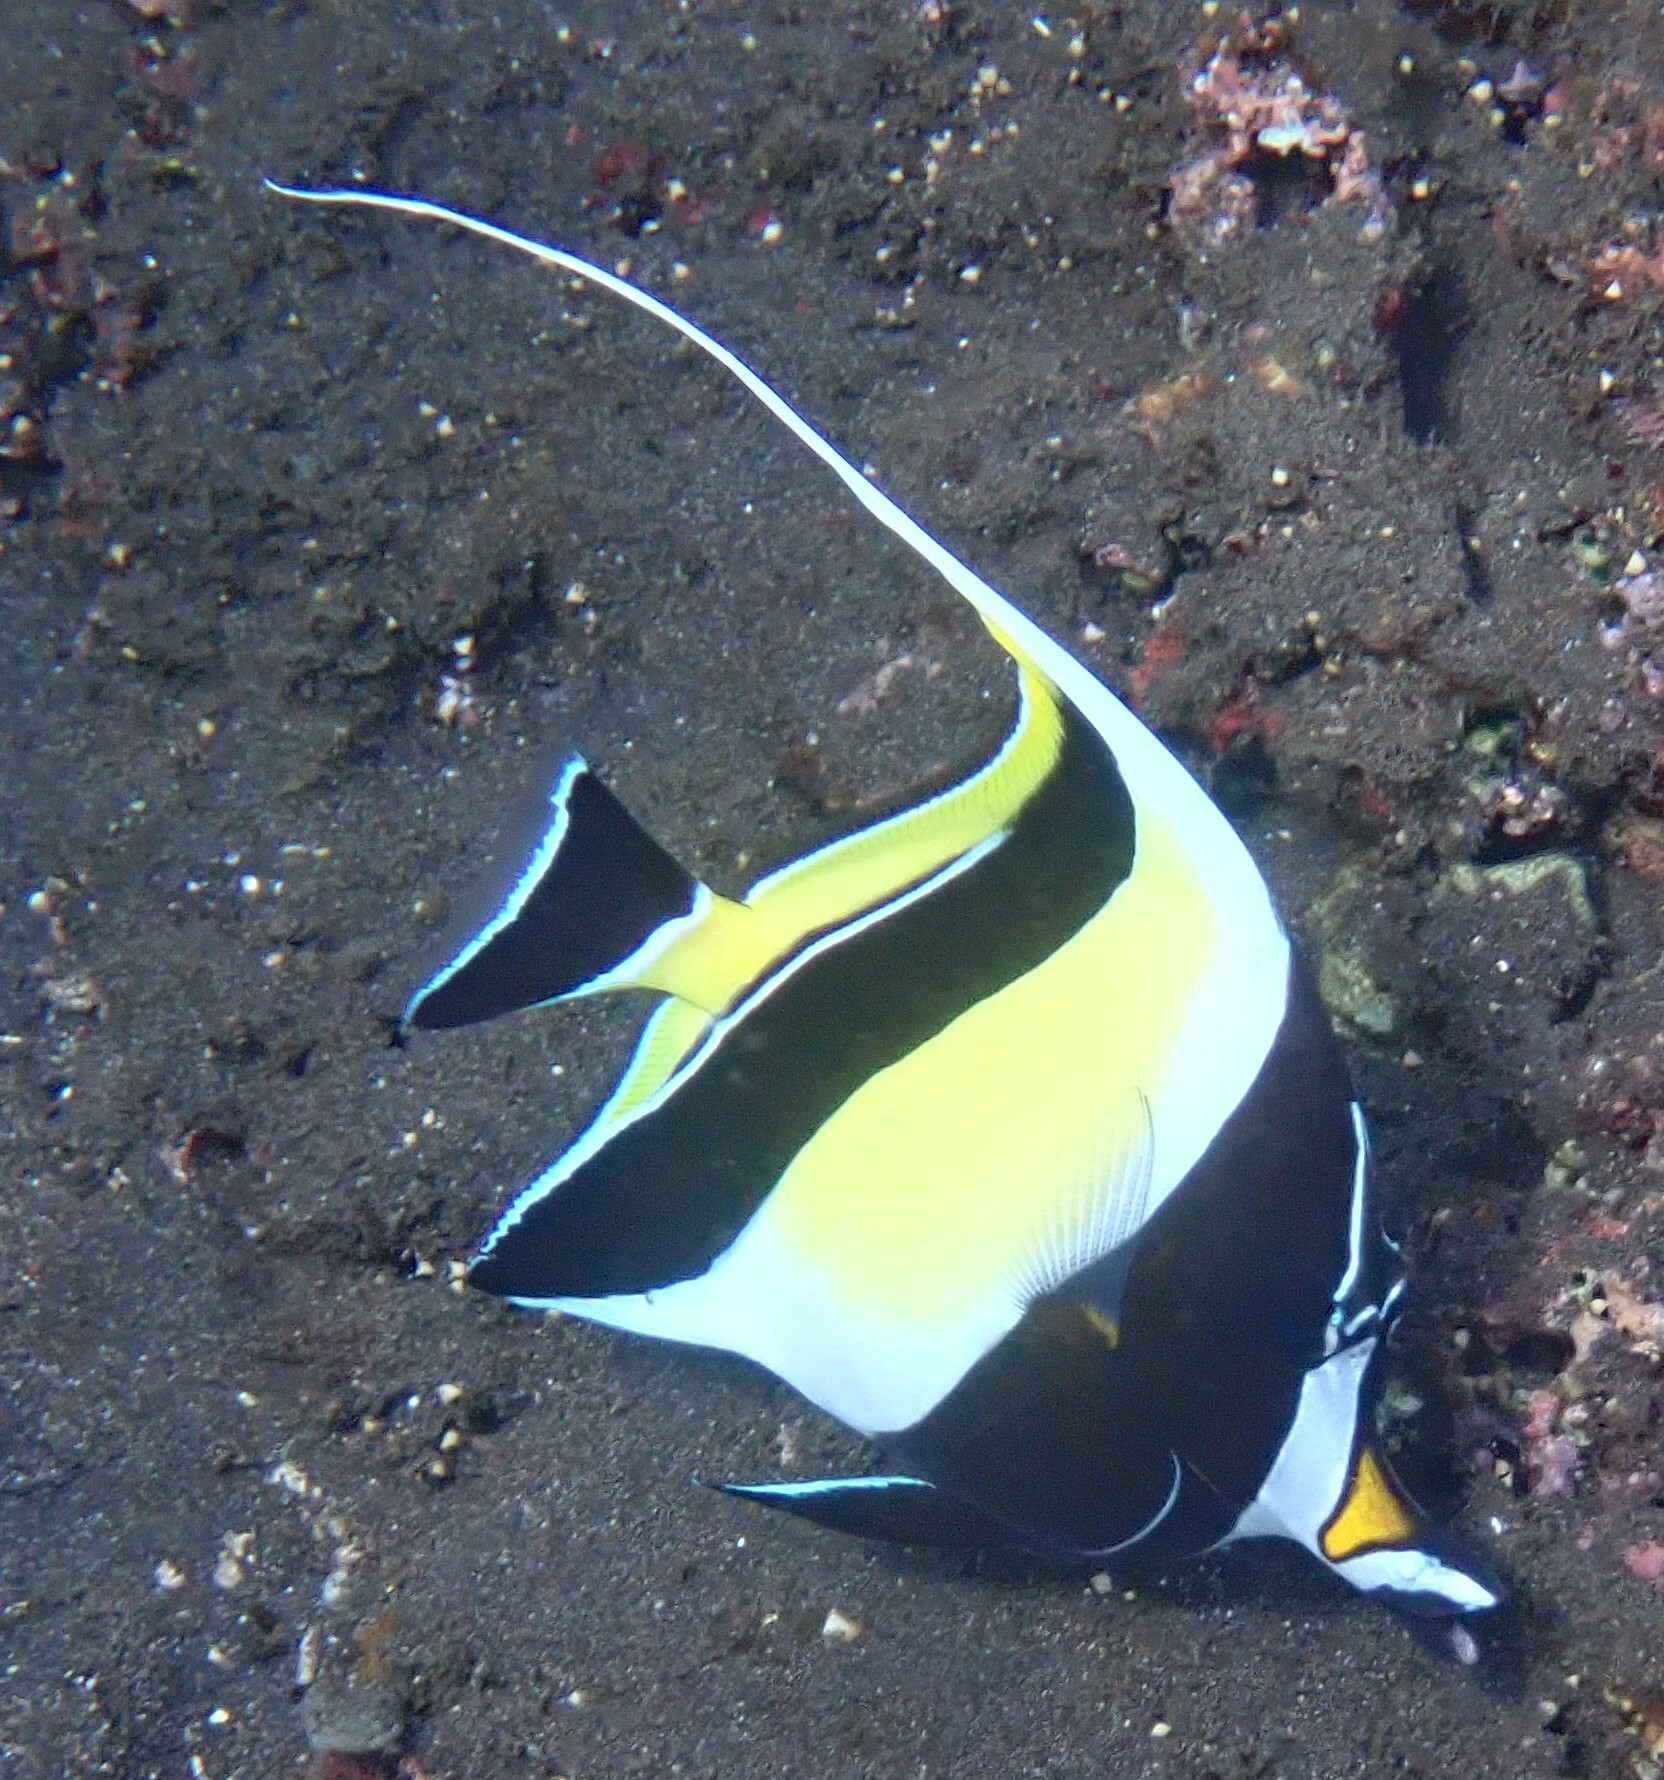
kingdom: Animalia
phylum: Chordata
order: Perciformes
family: Zanclidae
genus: Zanclus
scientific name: Zanclus cornutus
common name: Moorish idol
